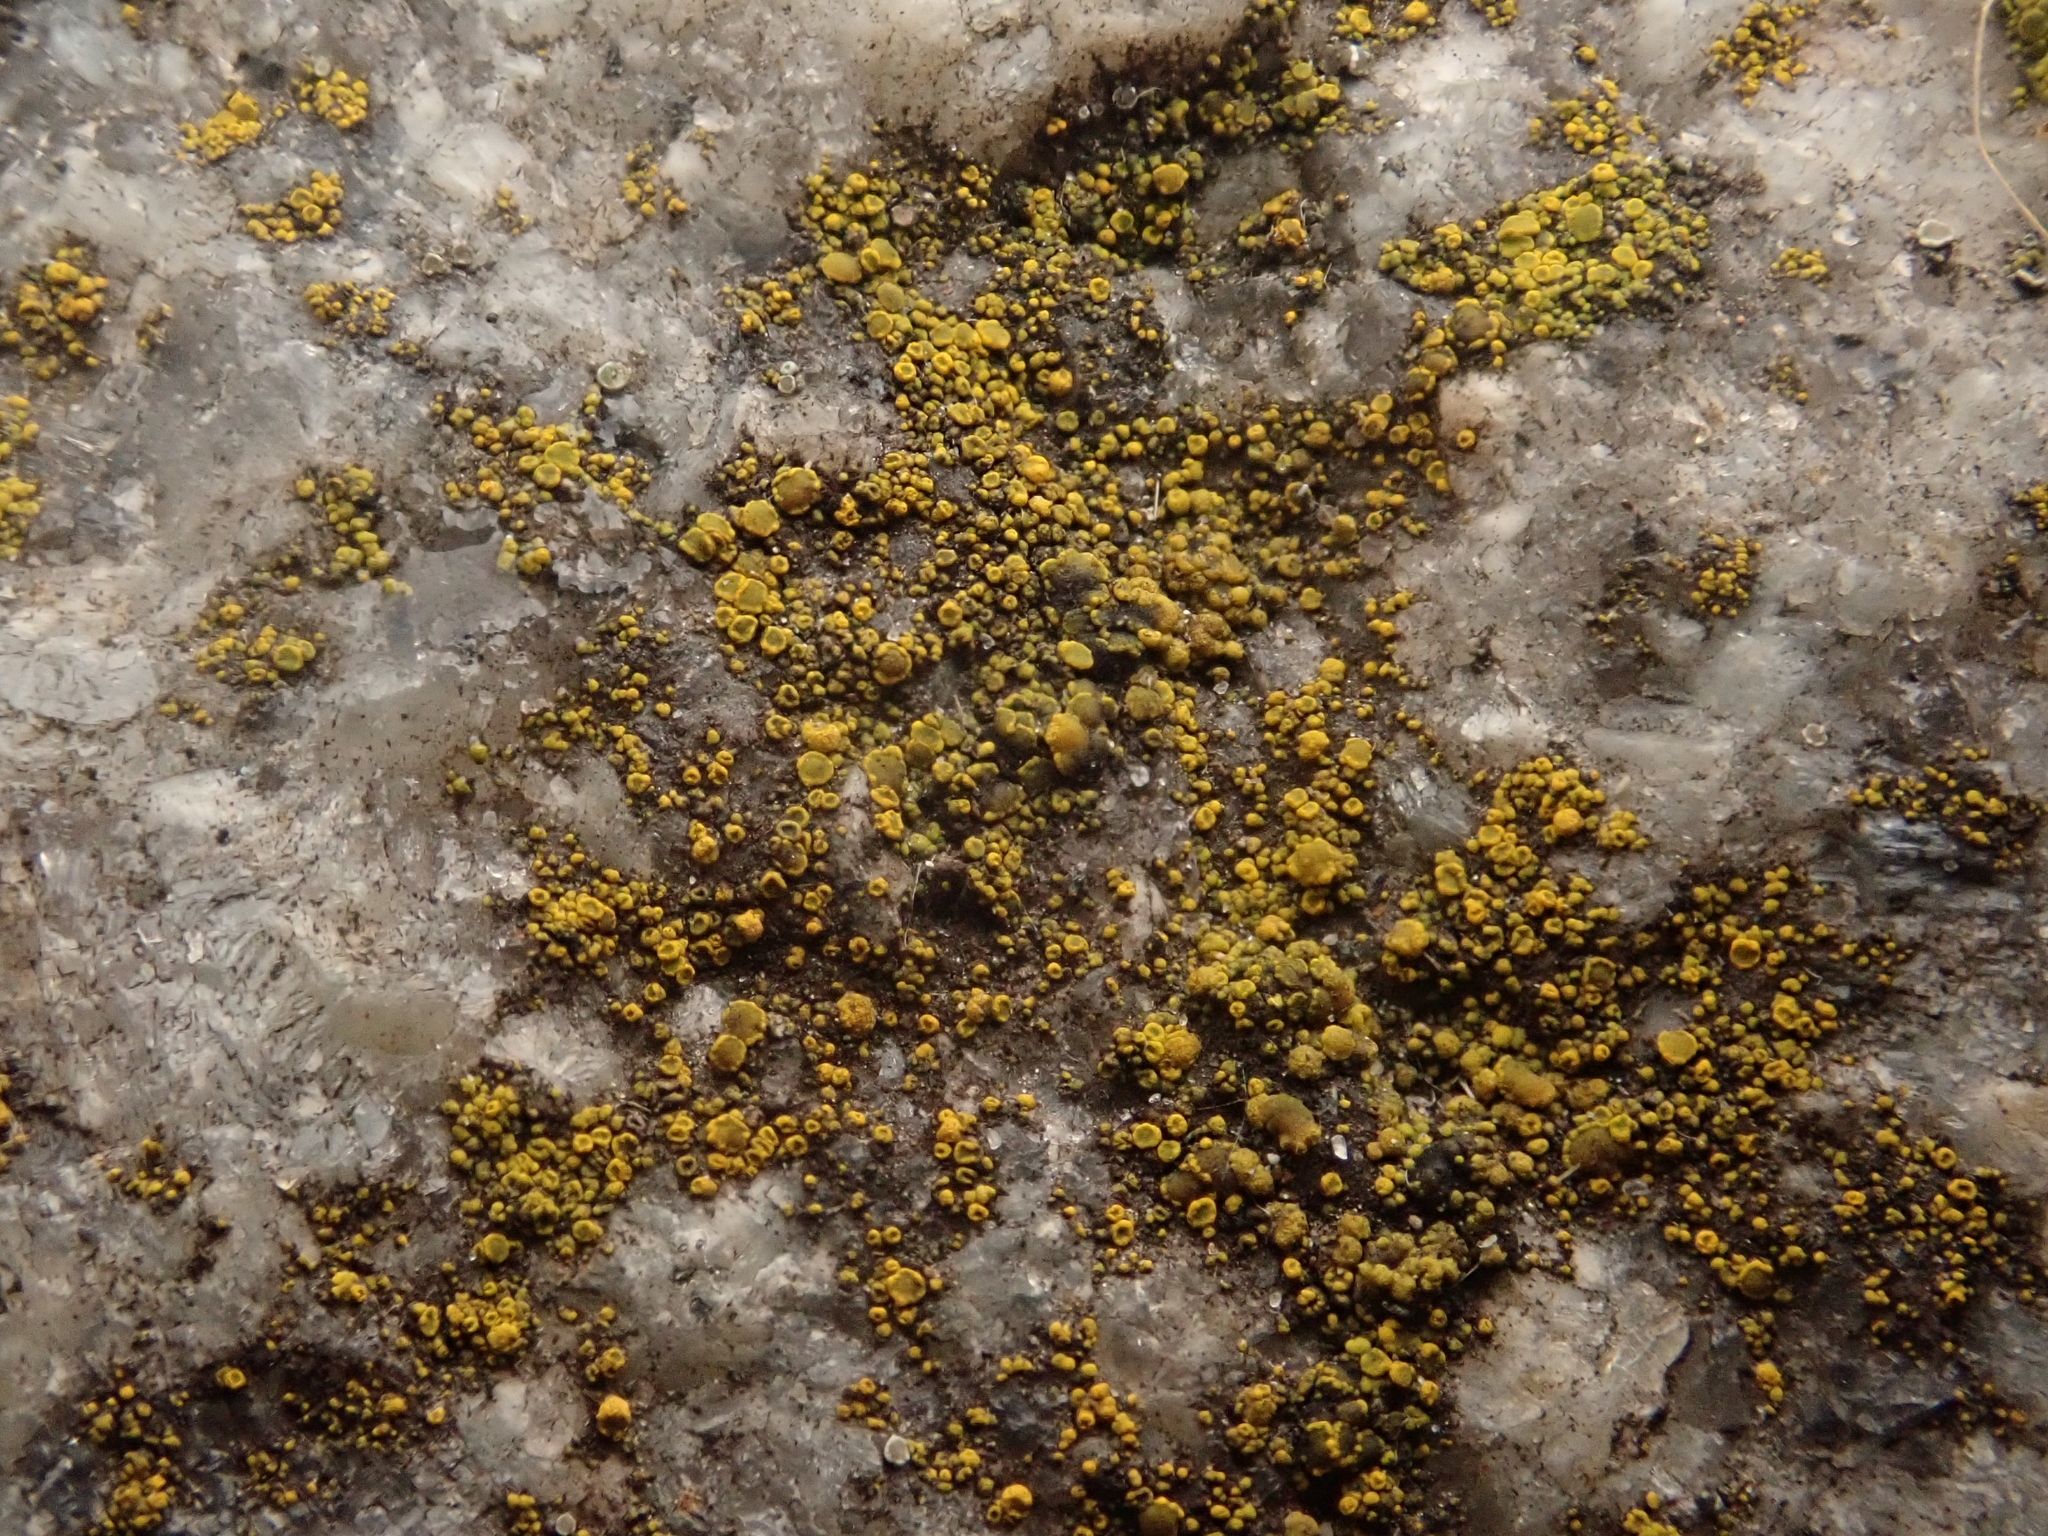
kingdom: Fungi
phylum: Ascomycota
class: Candelariomycetes
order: Candelariales
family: Candelariaceae
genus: Candelariella
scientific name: Candelariella aurella
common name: Hidden goldspeck lichen
